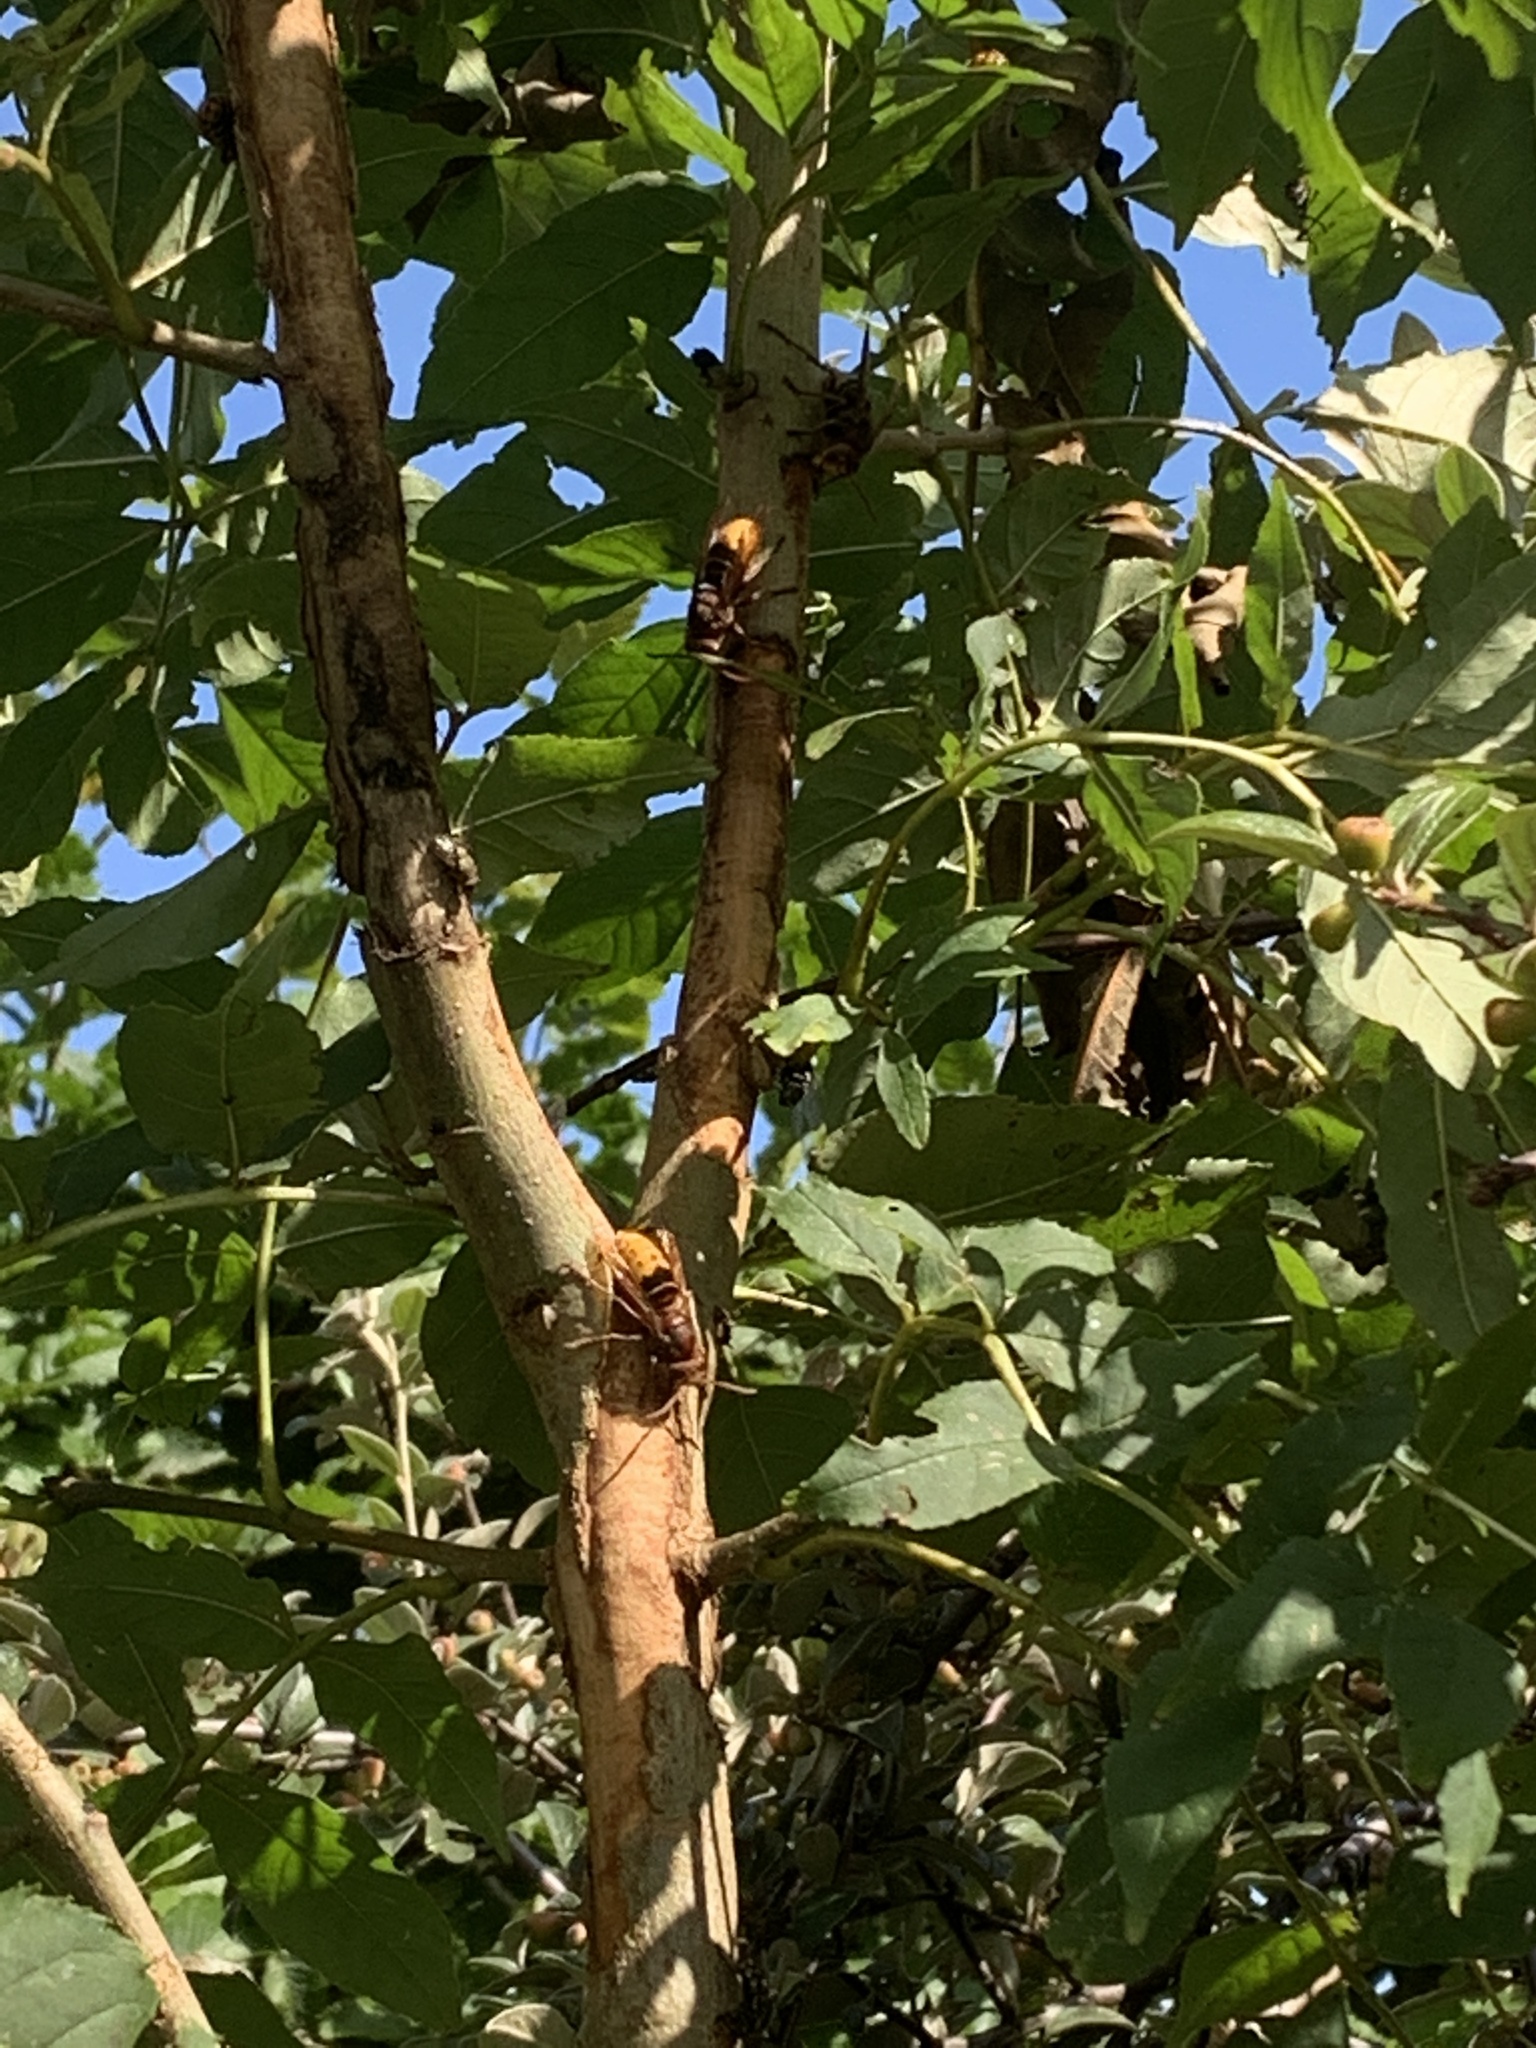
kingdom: Animalia
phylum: Arthropoda
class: Insecta
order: Hymenoptera
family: Vespidae
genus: Vespa
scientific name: Vespa crabro
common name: Hornet
